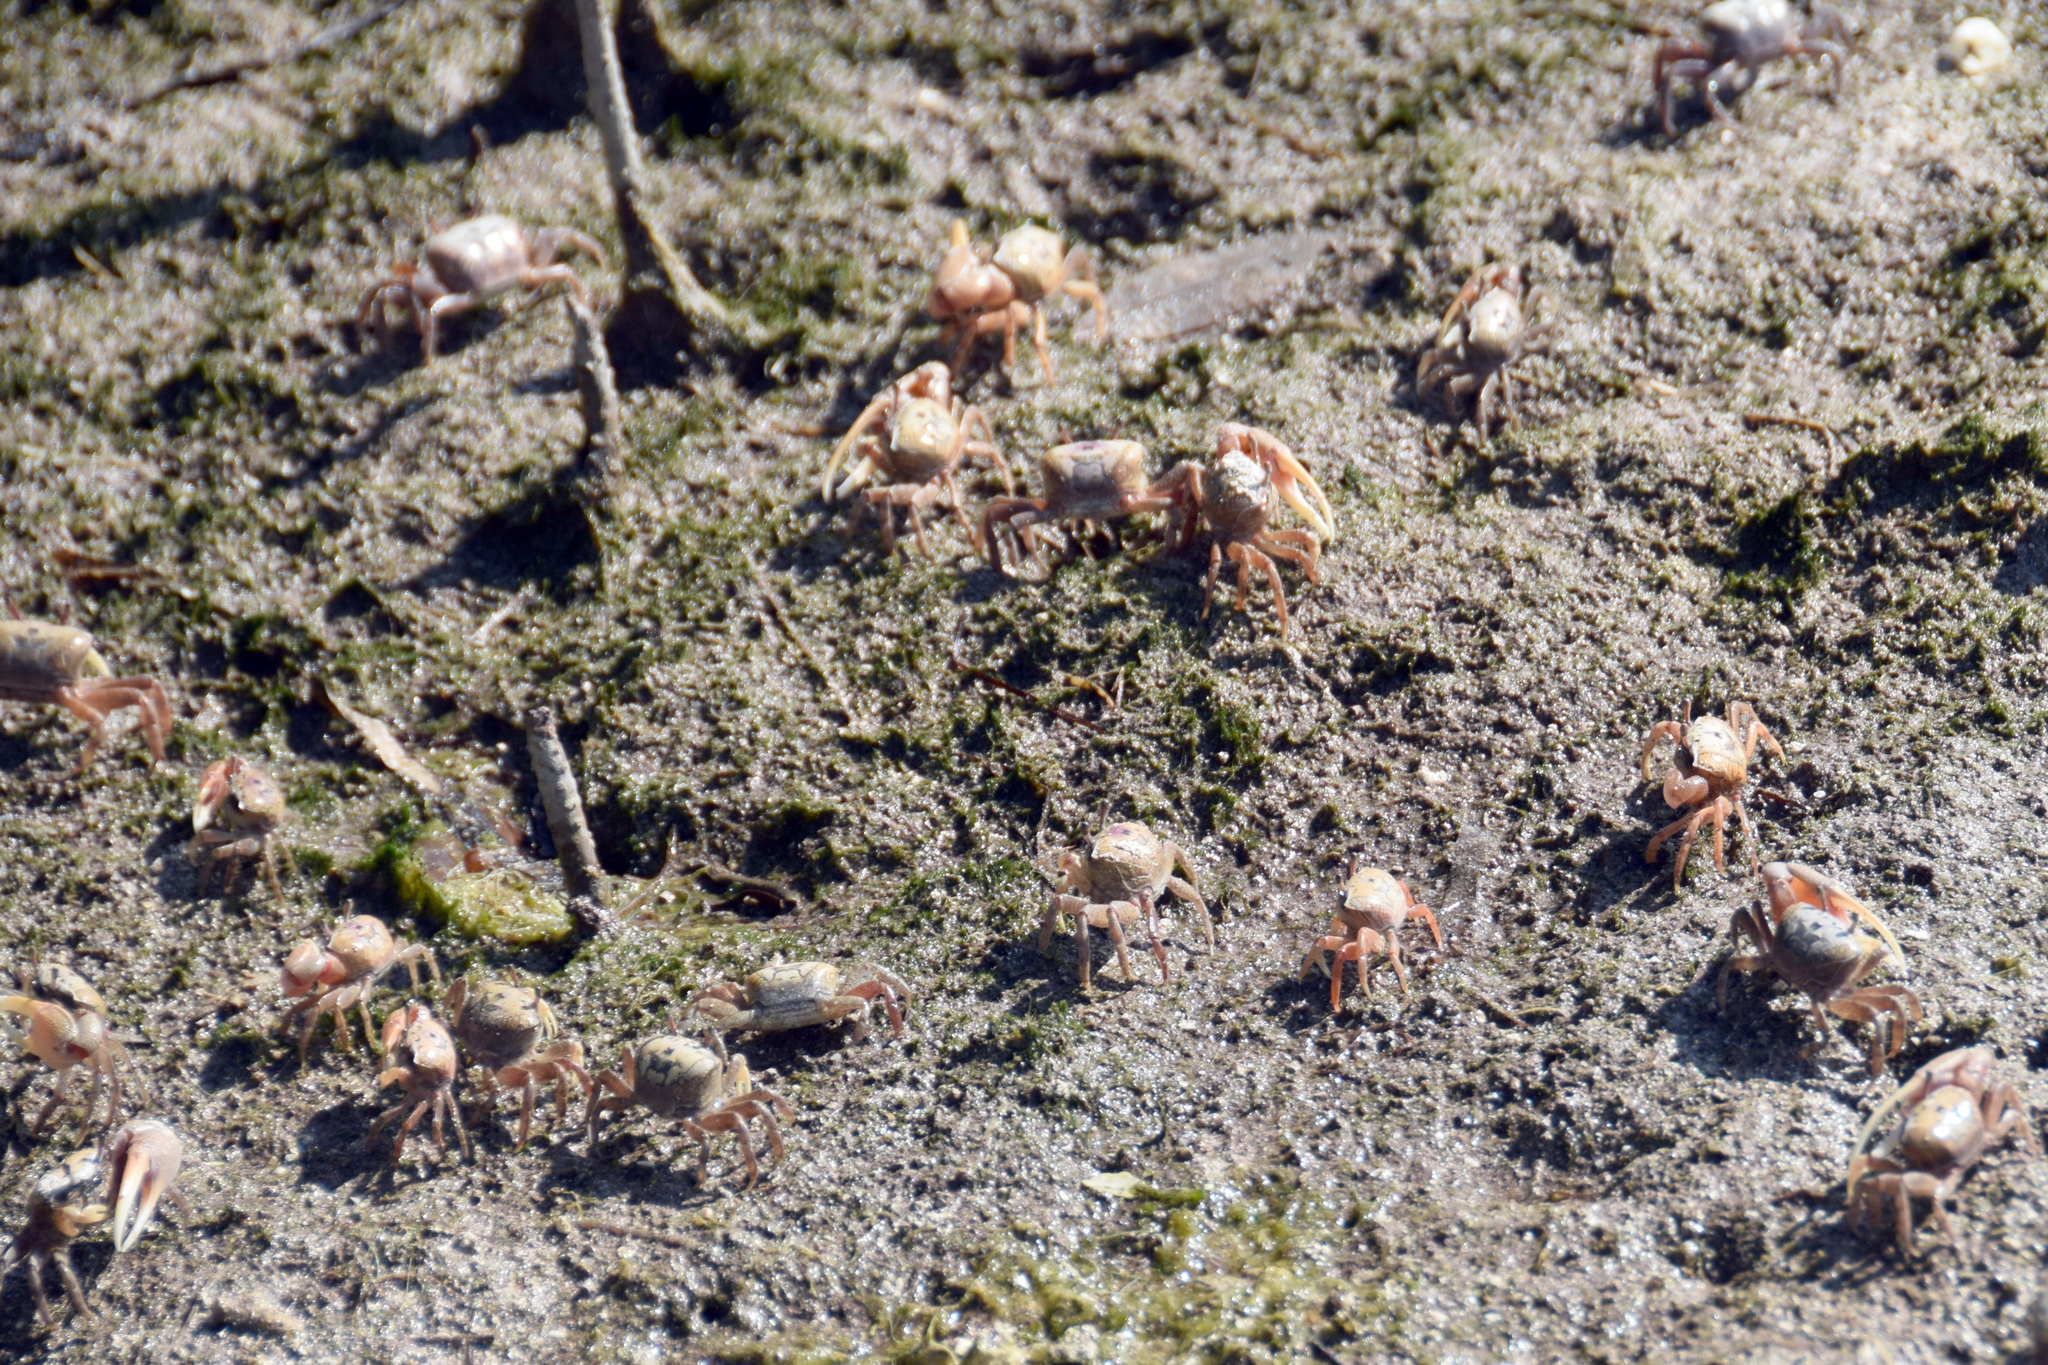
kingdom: Animalia
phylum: Arthropoda
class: Malacostraca
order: Decapoda
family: Ocypodidae
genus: Leptuca
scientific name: Leptuca pugilator
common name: Atlantic sand fiddler crab
